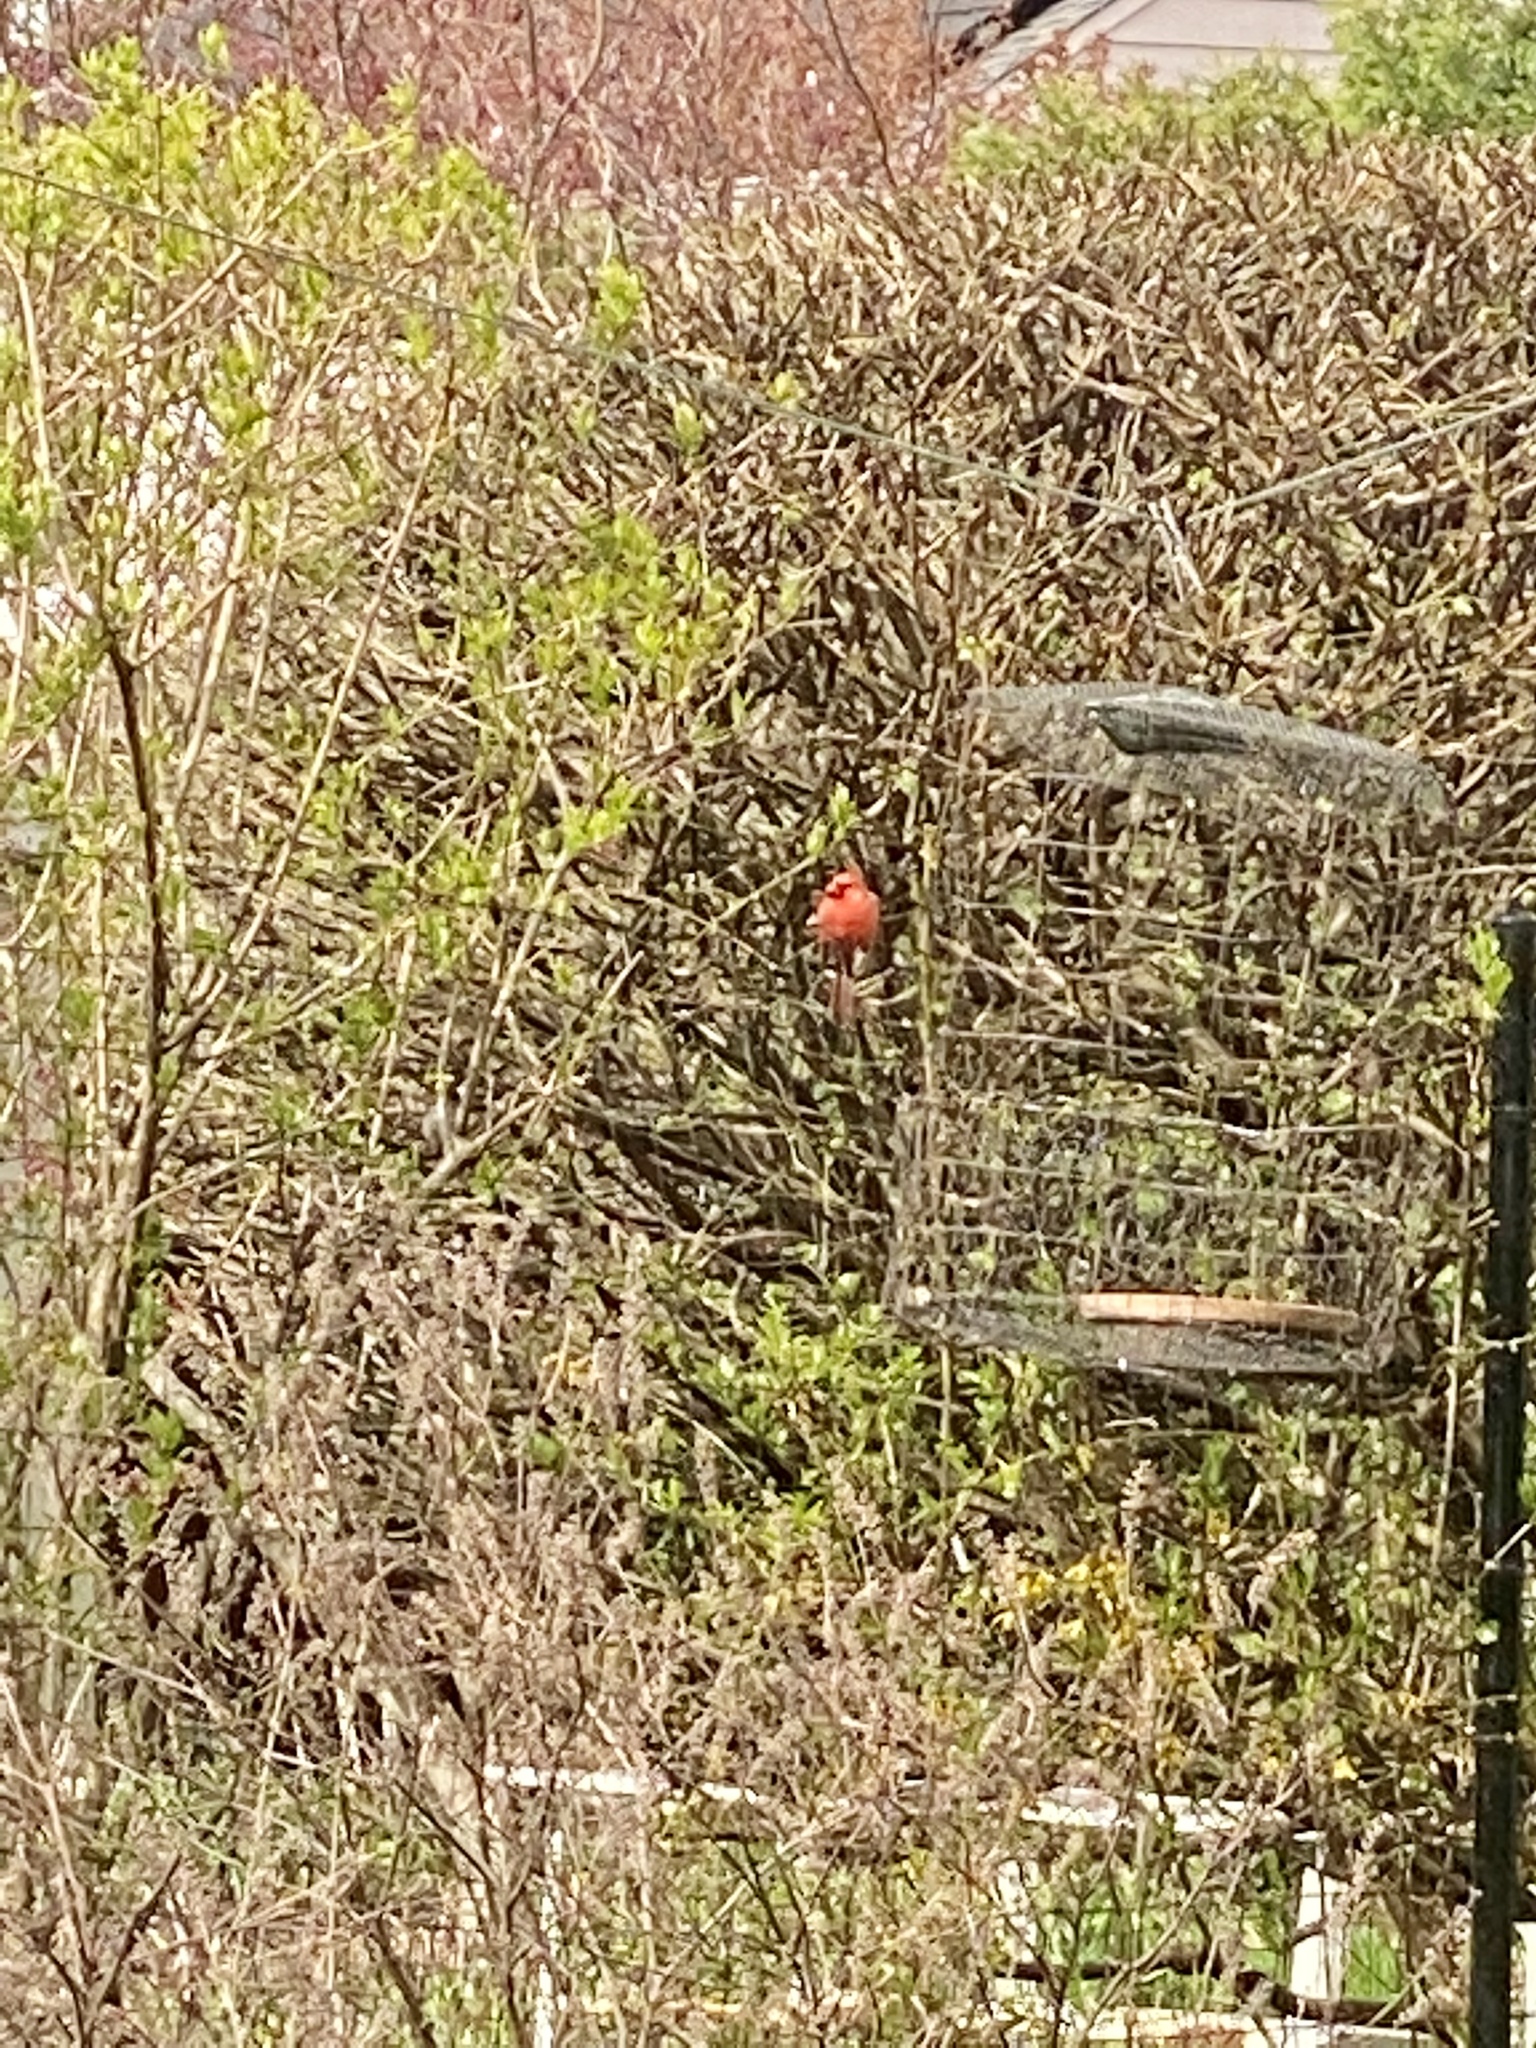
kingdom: Animalia
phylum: Chordata
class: Aves
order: Passeriformes
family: Cardinalidae
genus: Cardinalis
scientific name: Cardinalis cardinalis
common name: Northern cardinal
